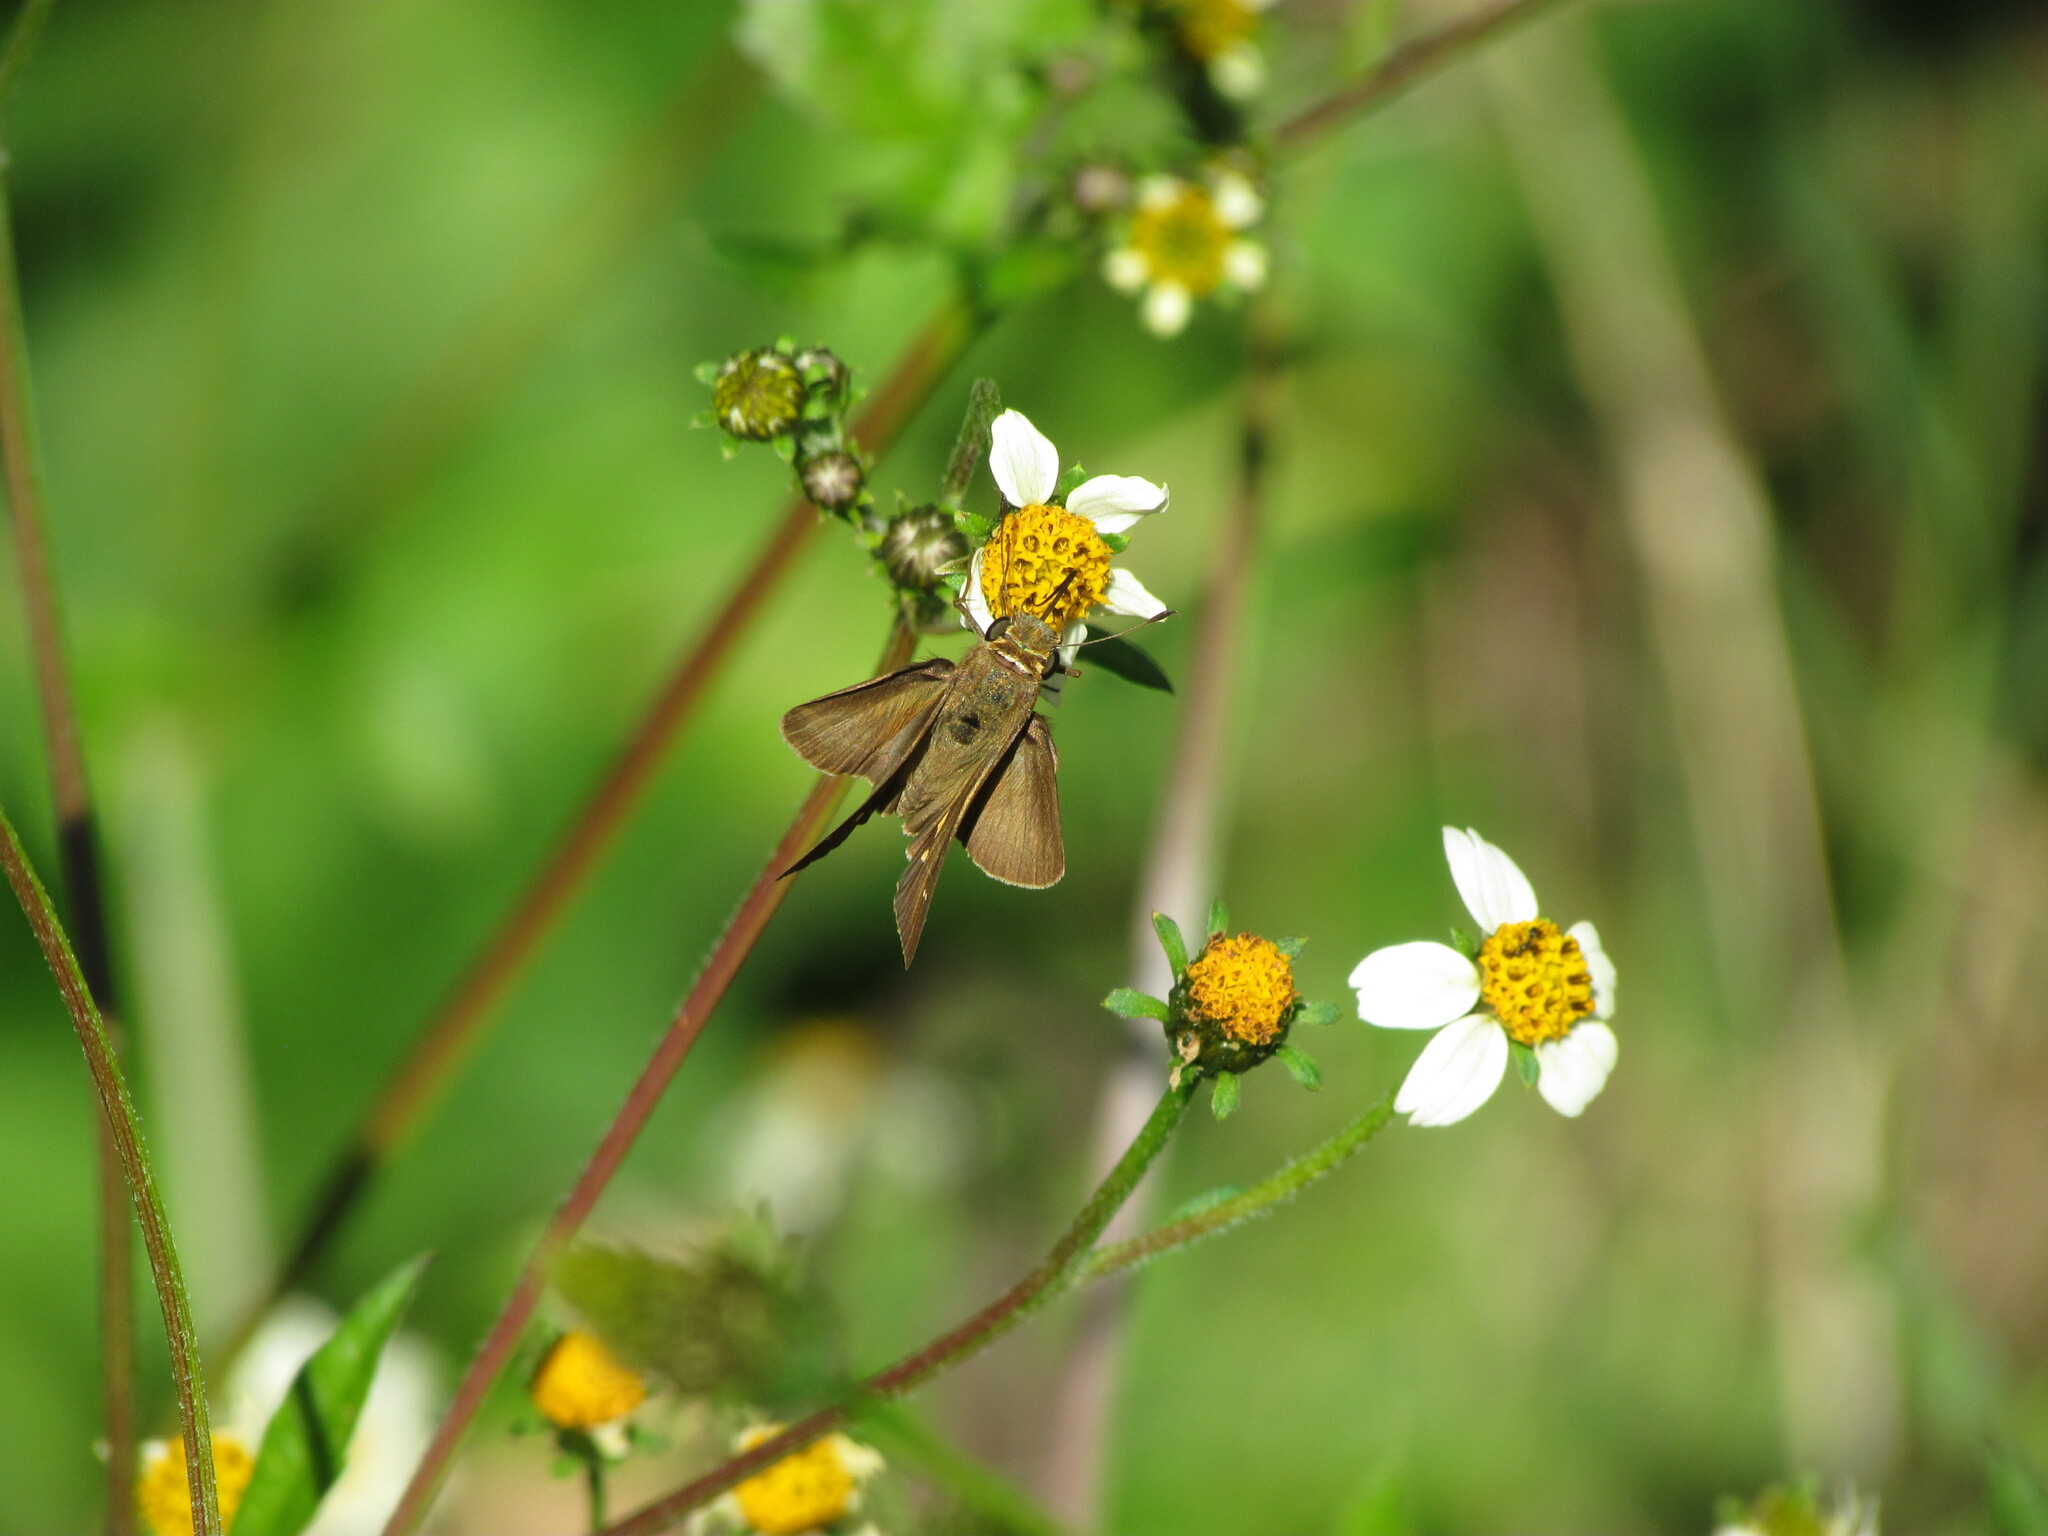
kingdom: Animalia
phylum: Arthropoda
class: Insecta
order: Lepidoptera
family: Hesperiidae
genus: Panoquina
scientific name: Panoquina ocola
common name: Ocola skipper
